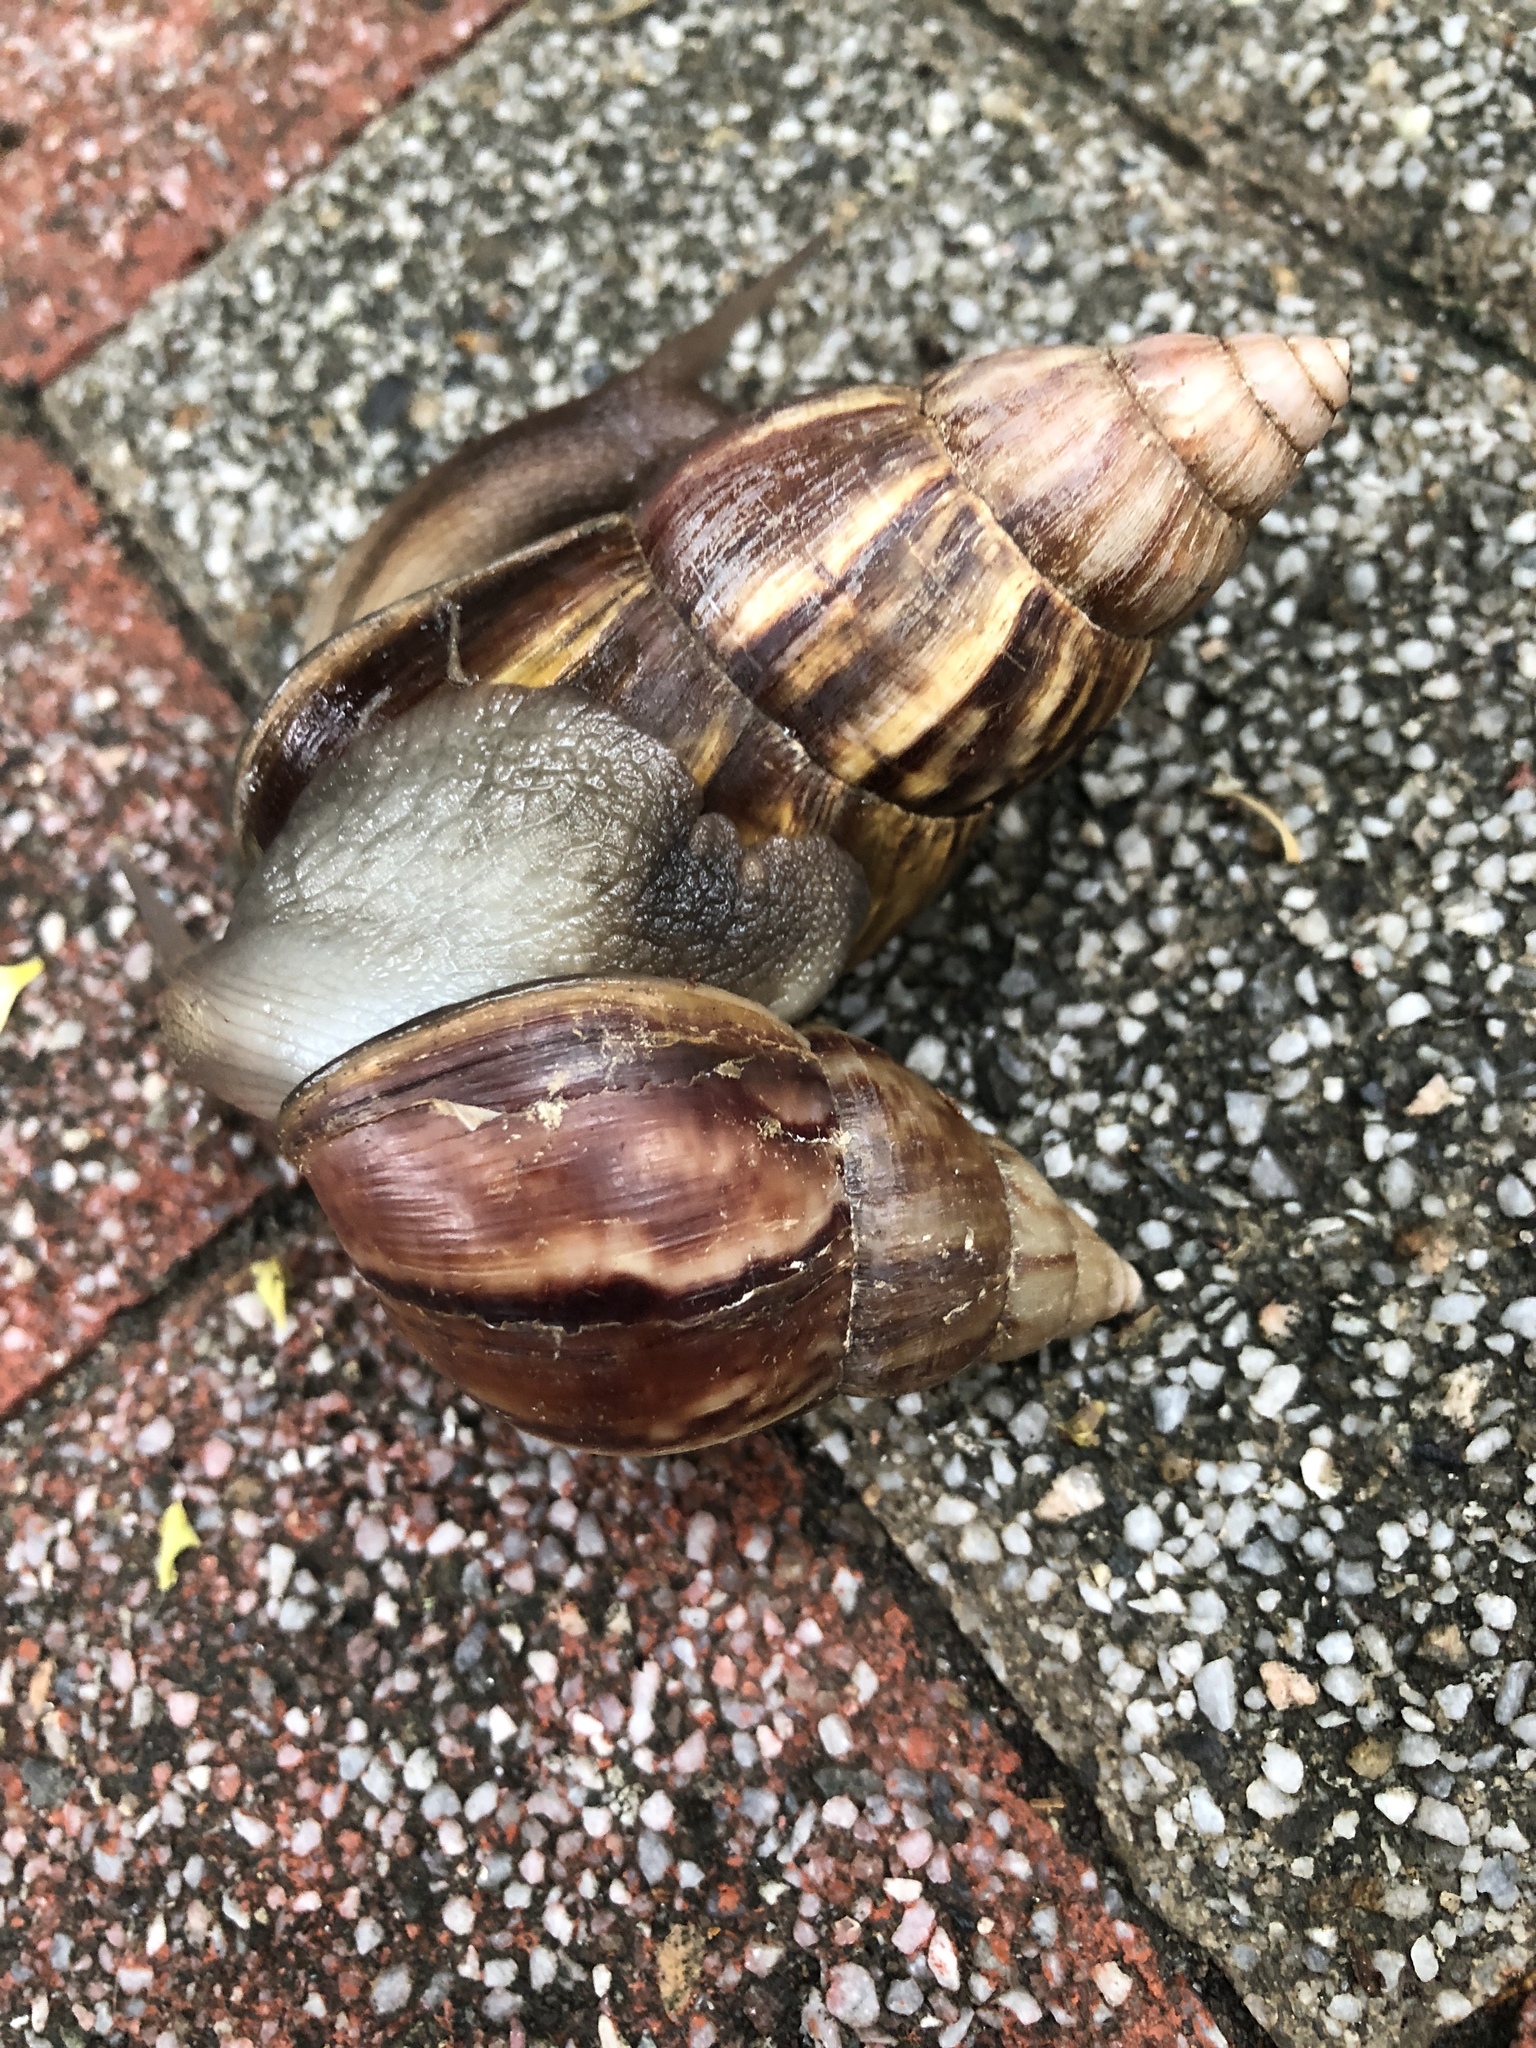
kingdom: Animalia
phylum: Mollusca
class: Gastropoda
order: Stylommatophora
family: Achatinidae
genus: Lissachatina
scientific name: Lissachatina fulica
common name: Giant african snail
